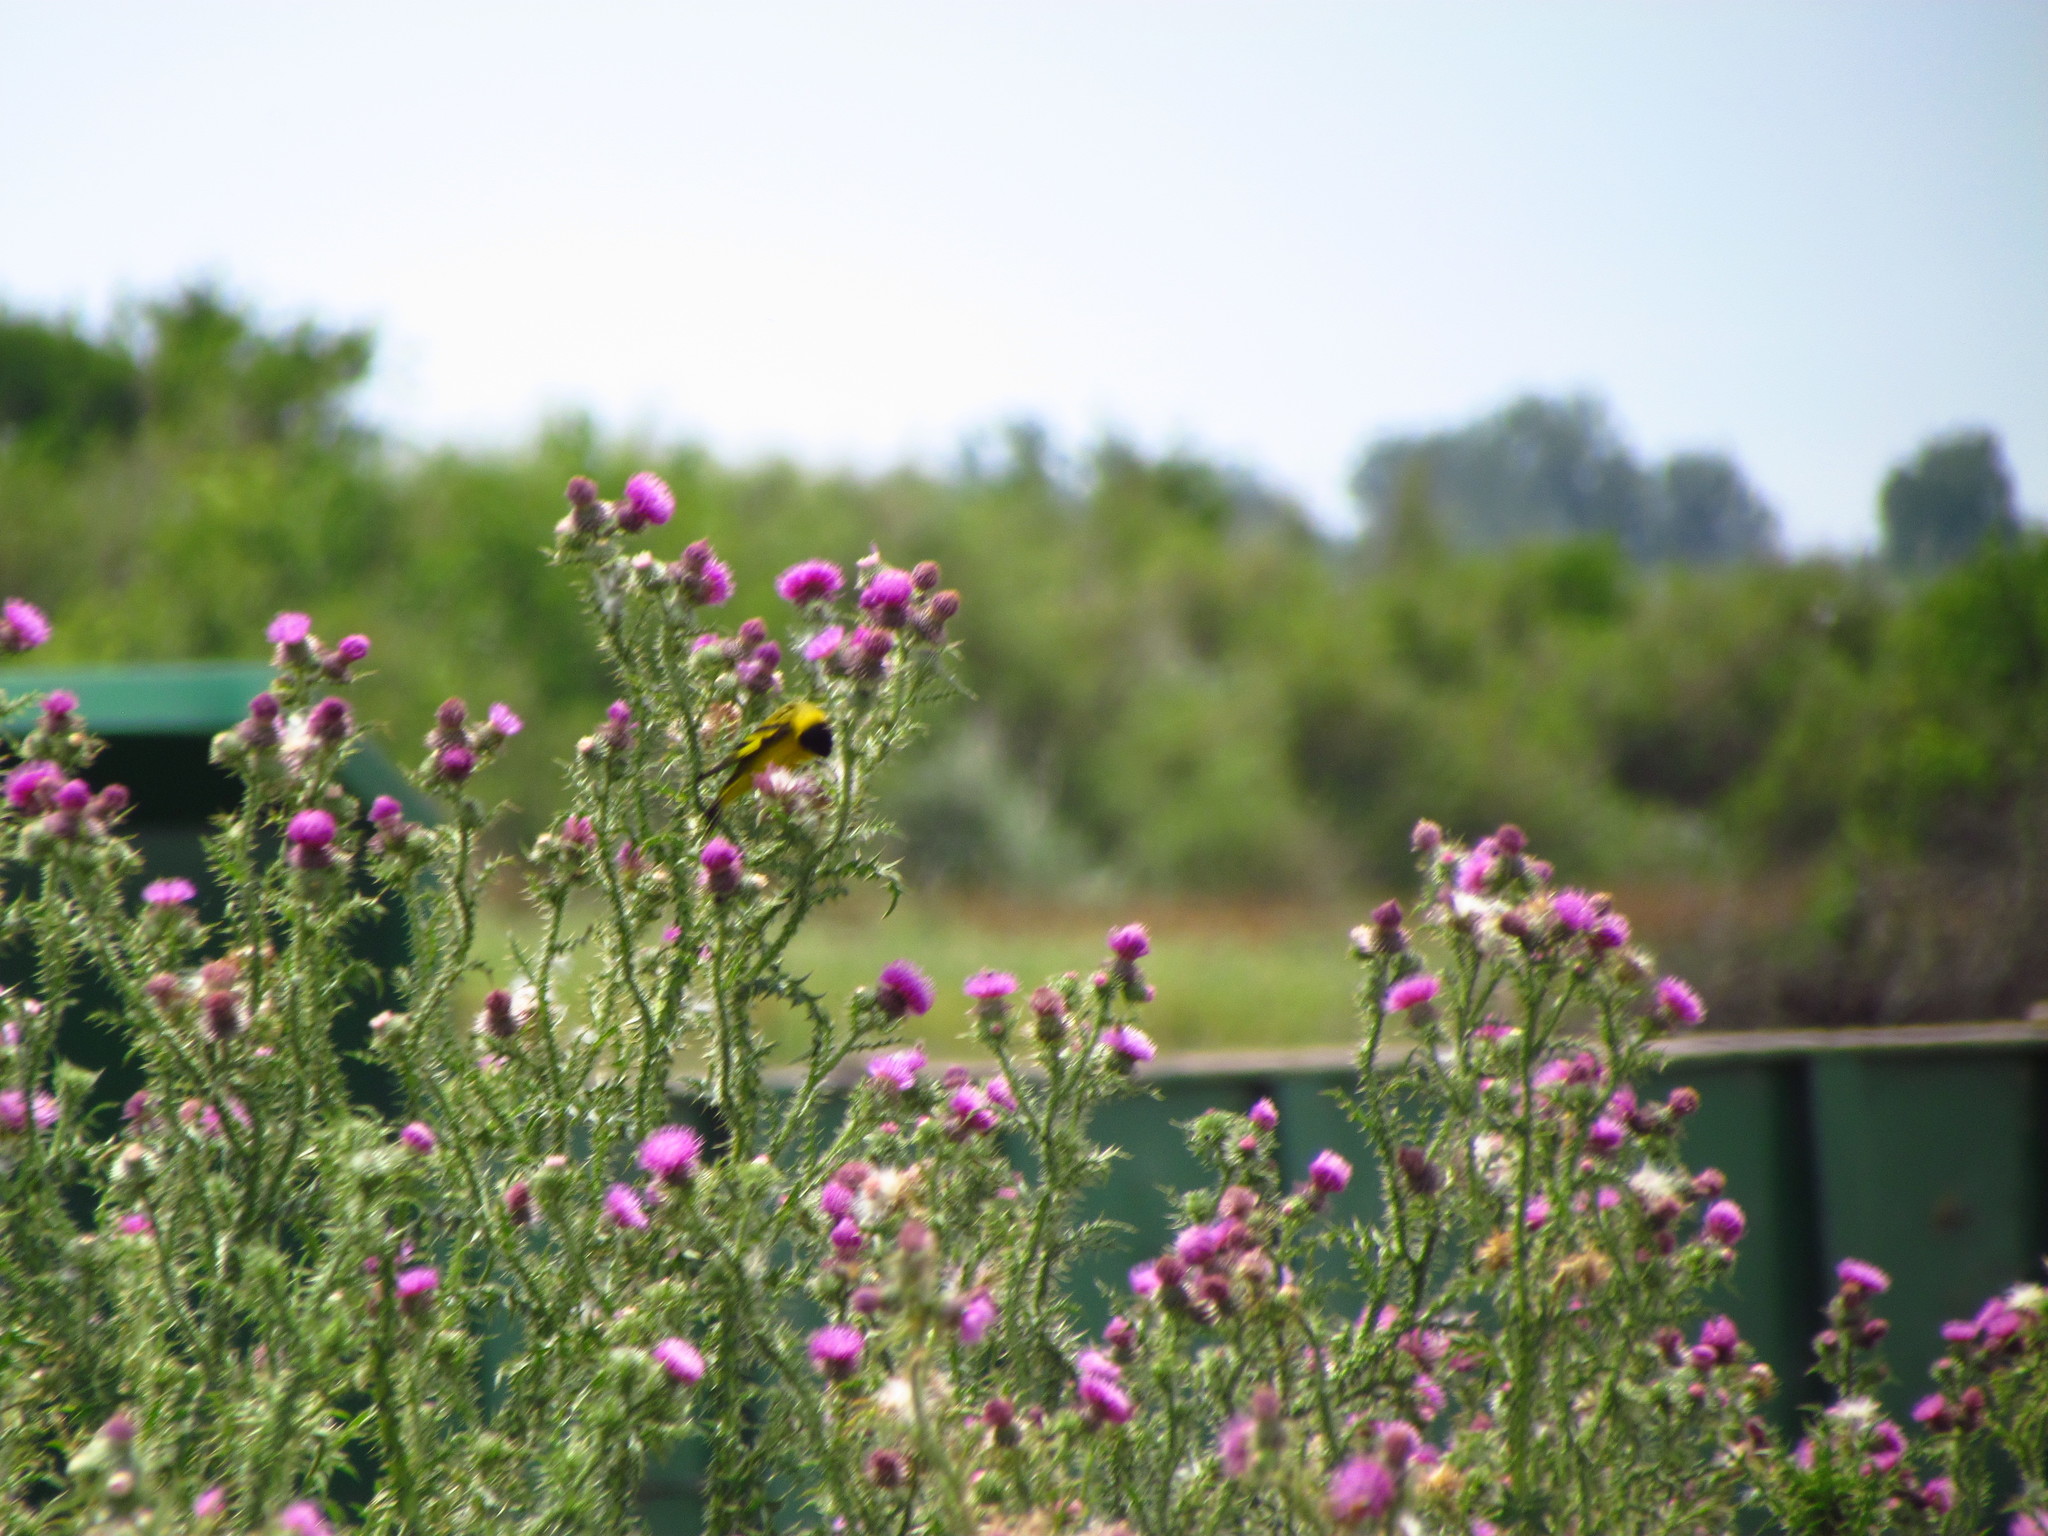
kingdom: Animalia
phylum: Chordata
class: Aves
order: Passeriformes
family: Fringillidae
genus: Spinus
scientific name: Spinus magellanicus
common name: Hooded siskin
